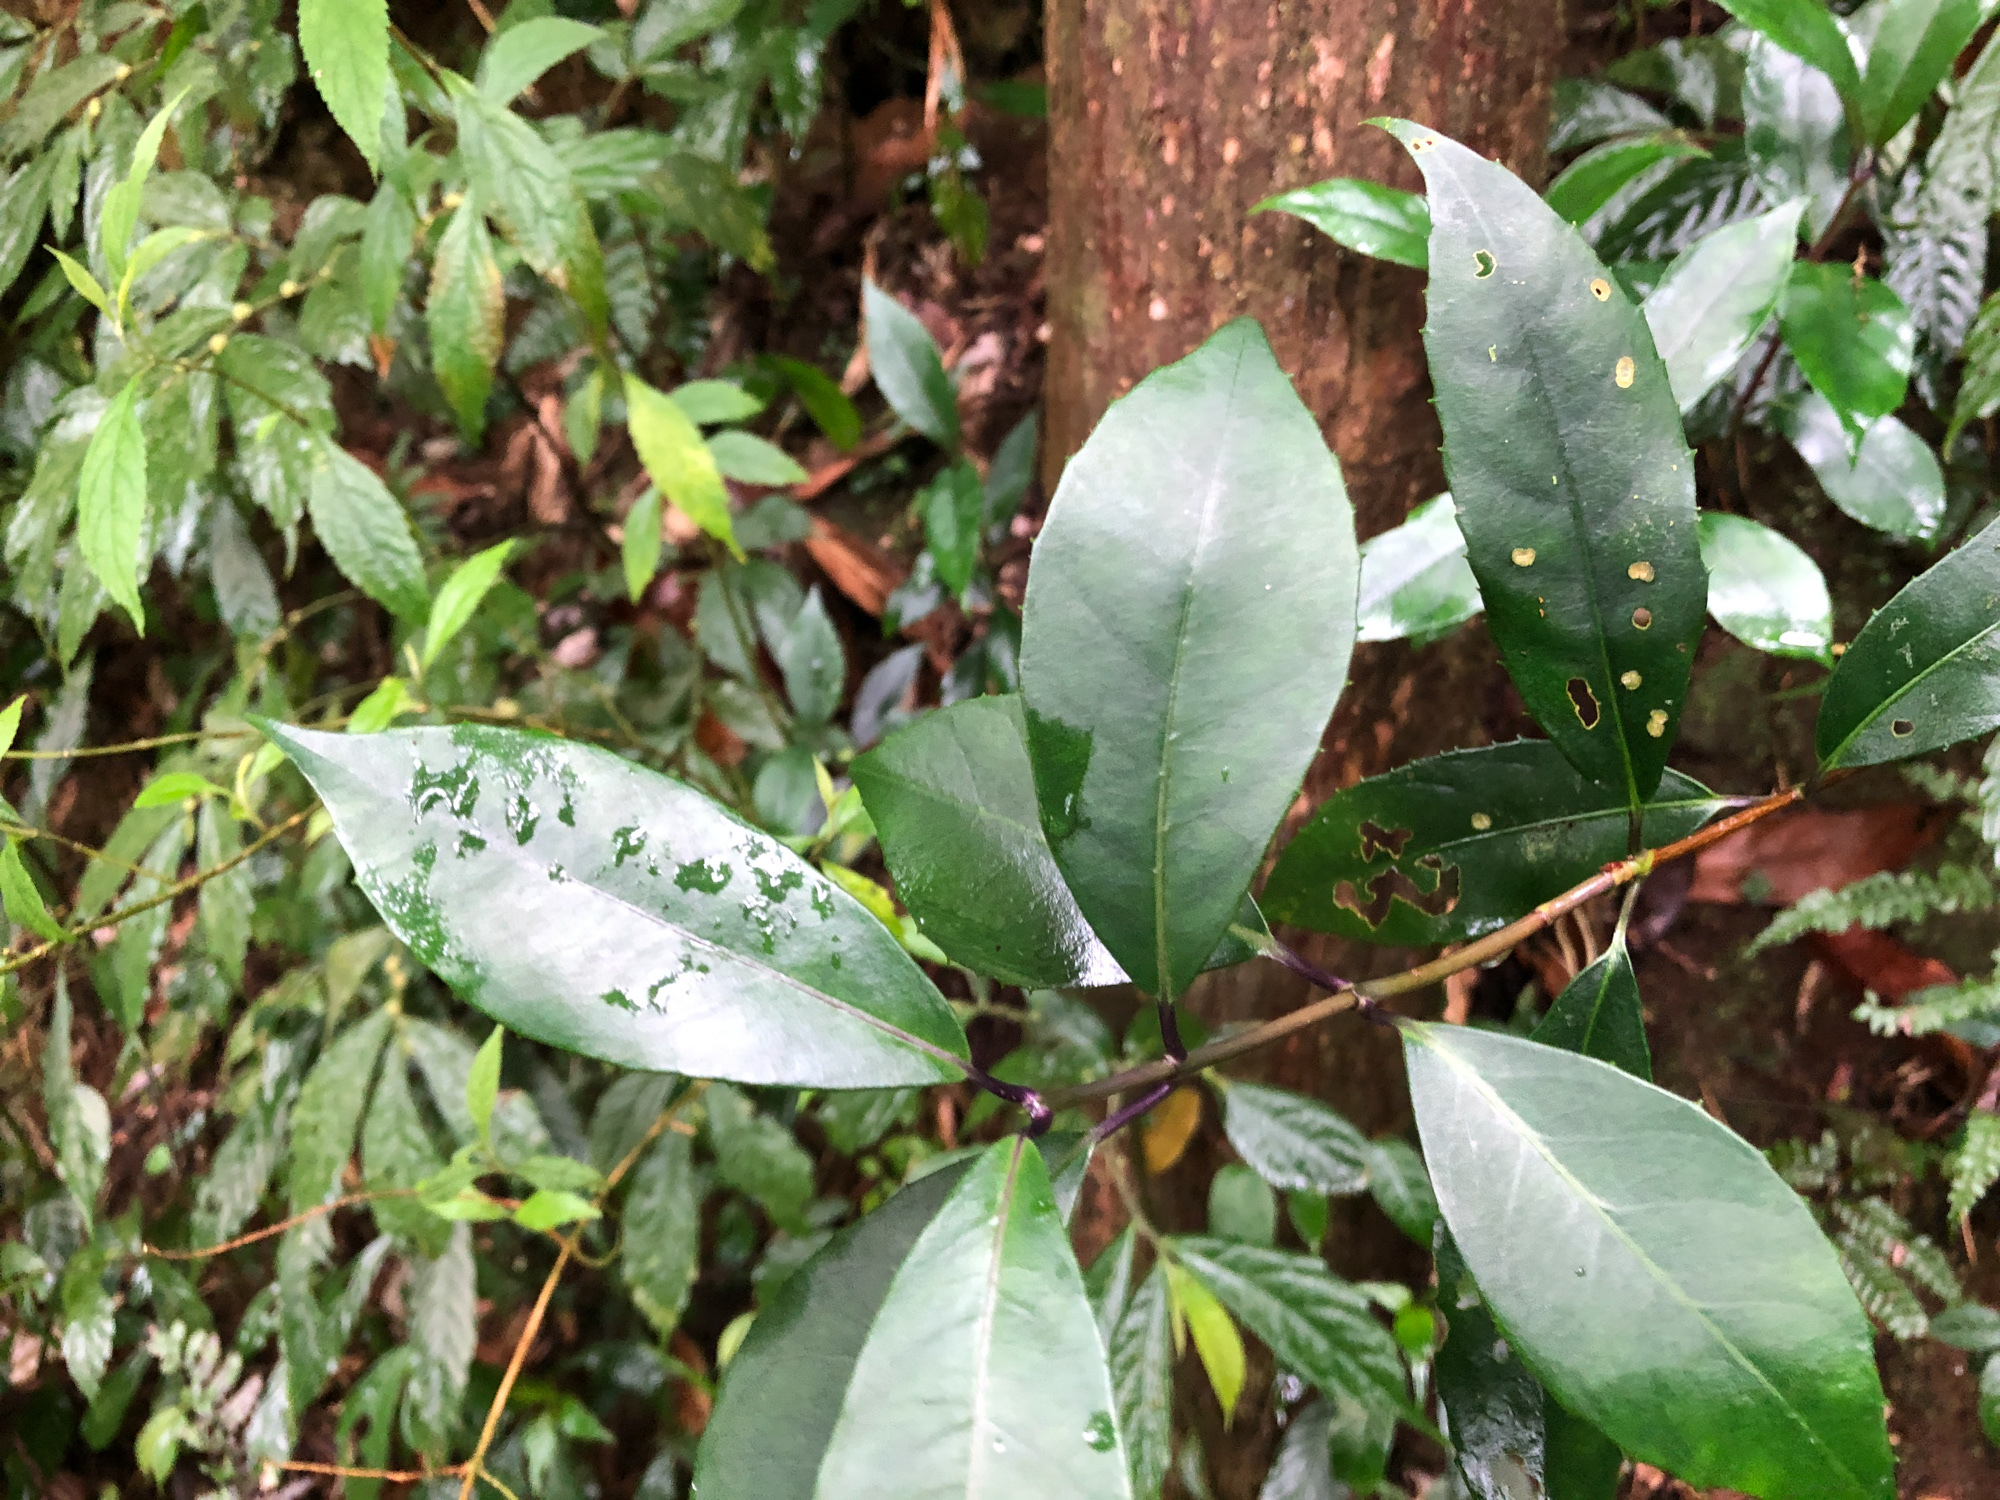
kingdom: Plantae
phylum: Tracheophyta
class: Magnoliopsida
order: Cornales
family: Hydrangeaceae
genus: Hydrangea
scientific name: Hydrangea chinensis
